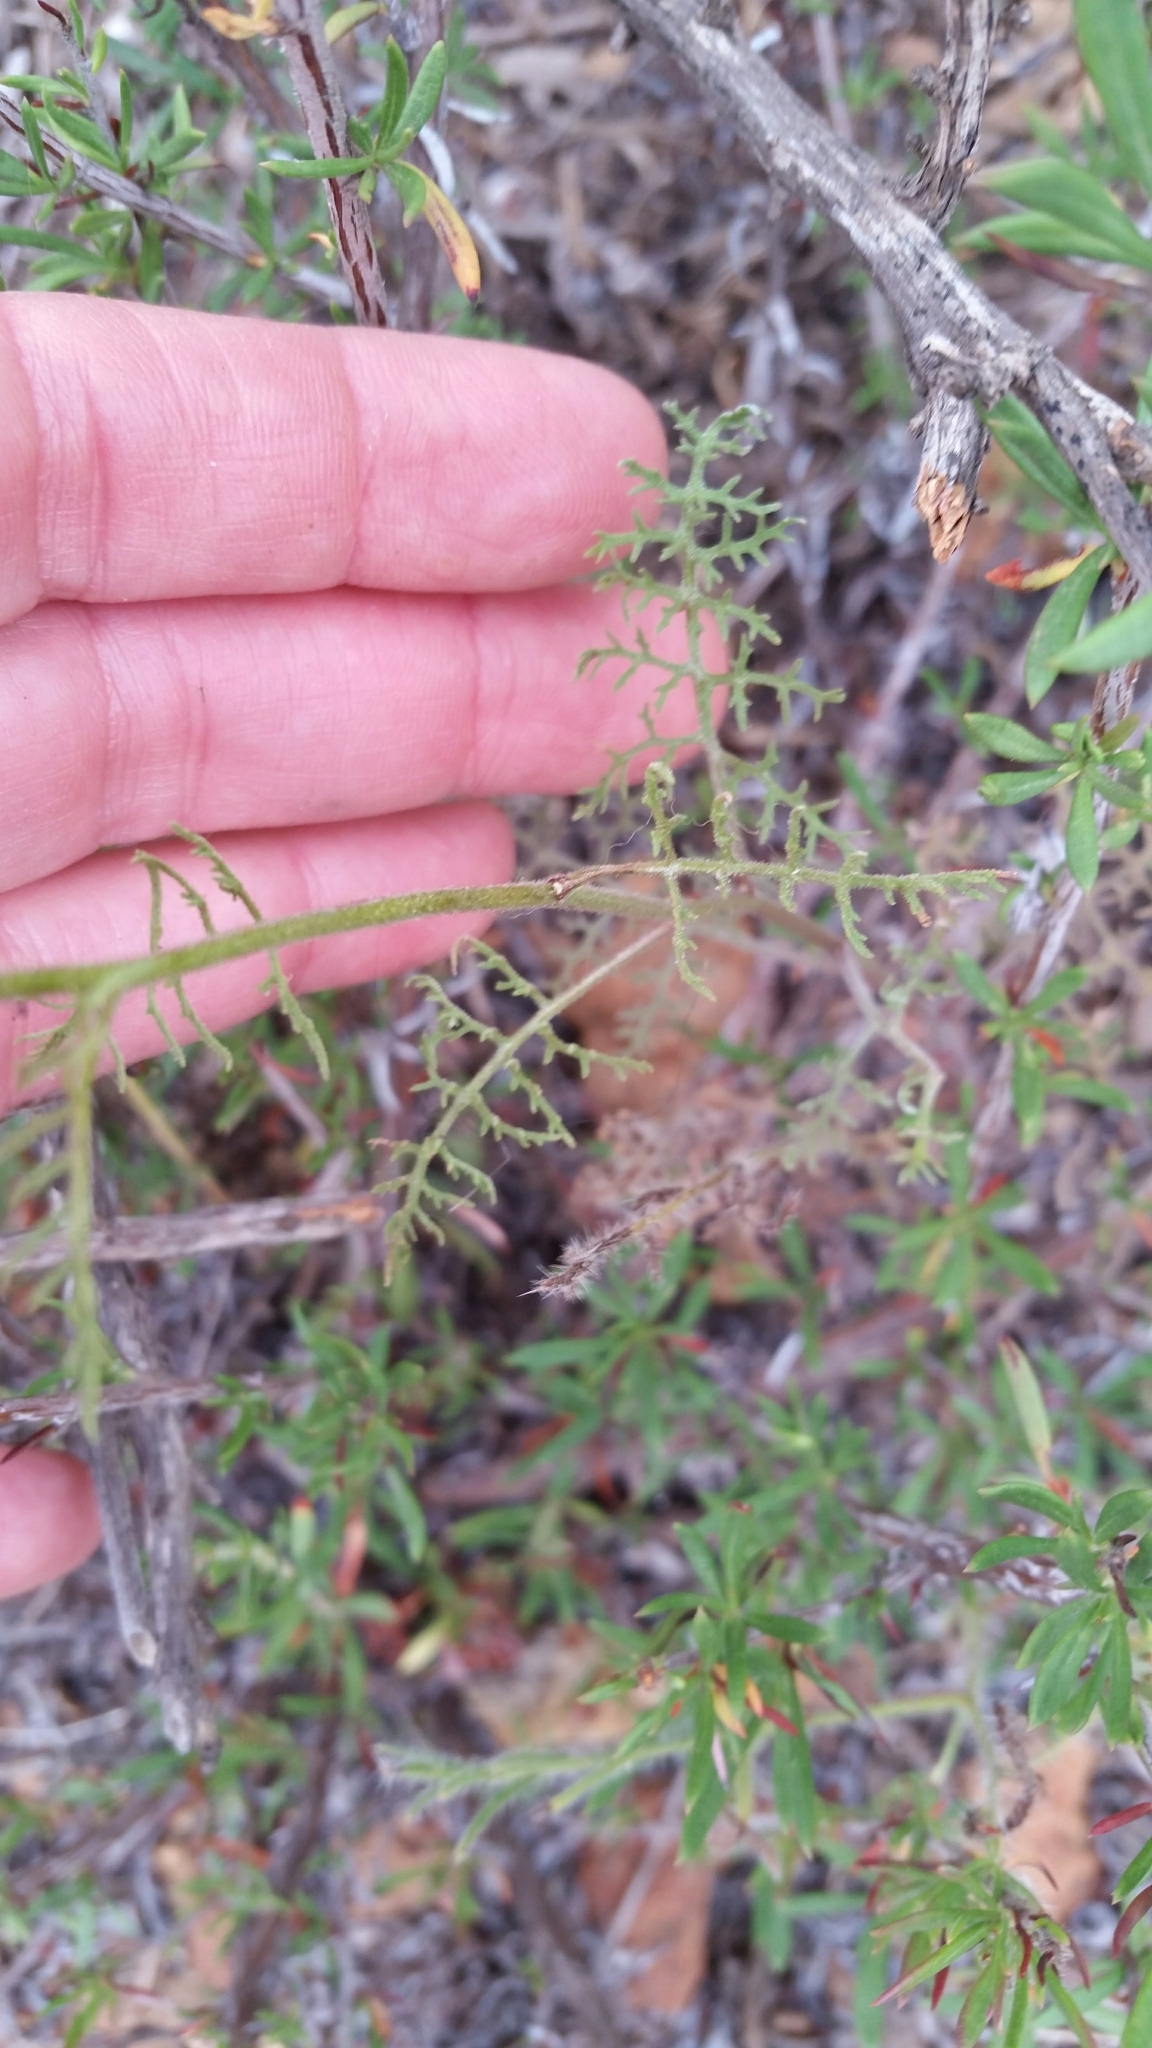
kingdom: Plantae
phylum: Tracheophyta
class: Magnoliopsida
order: Asterales
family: Asteraceae
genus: Chaenactis
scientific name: Chaenactis artemisiifolia
